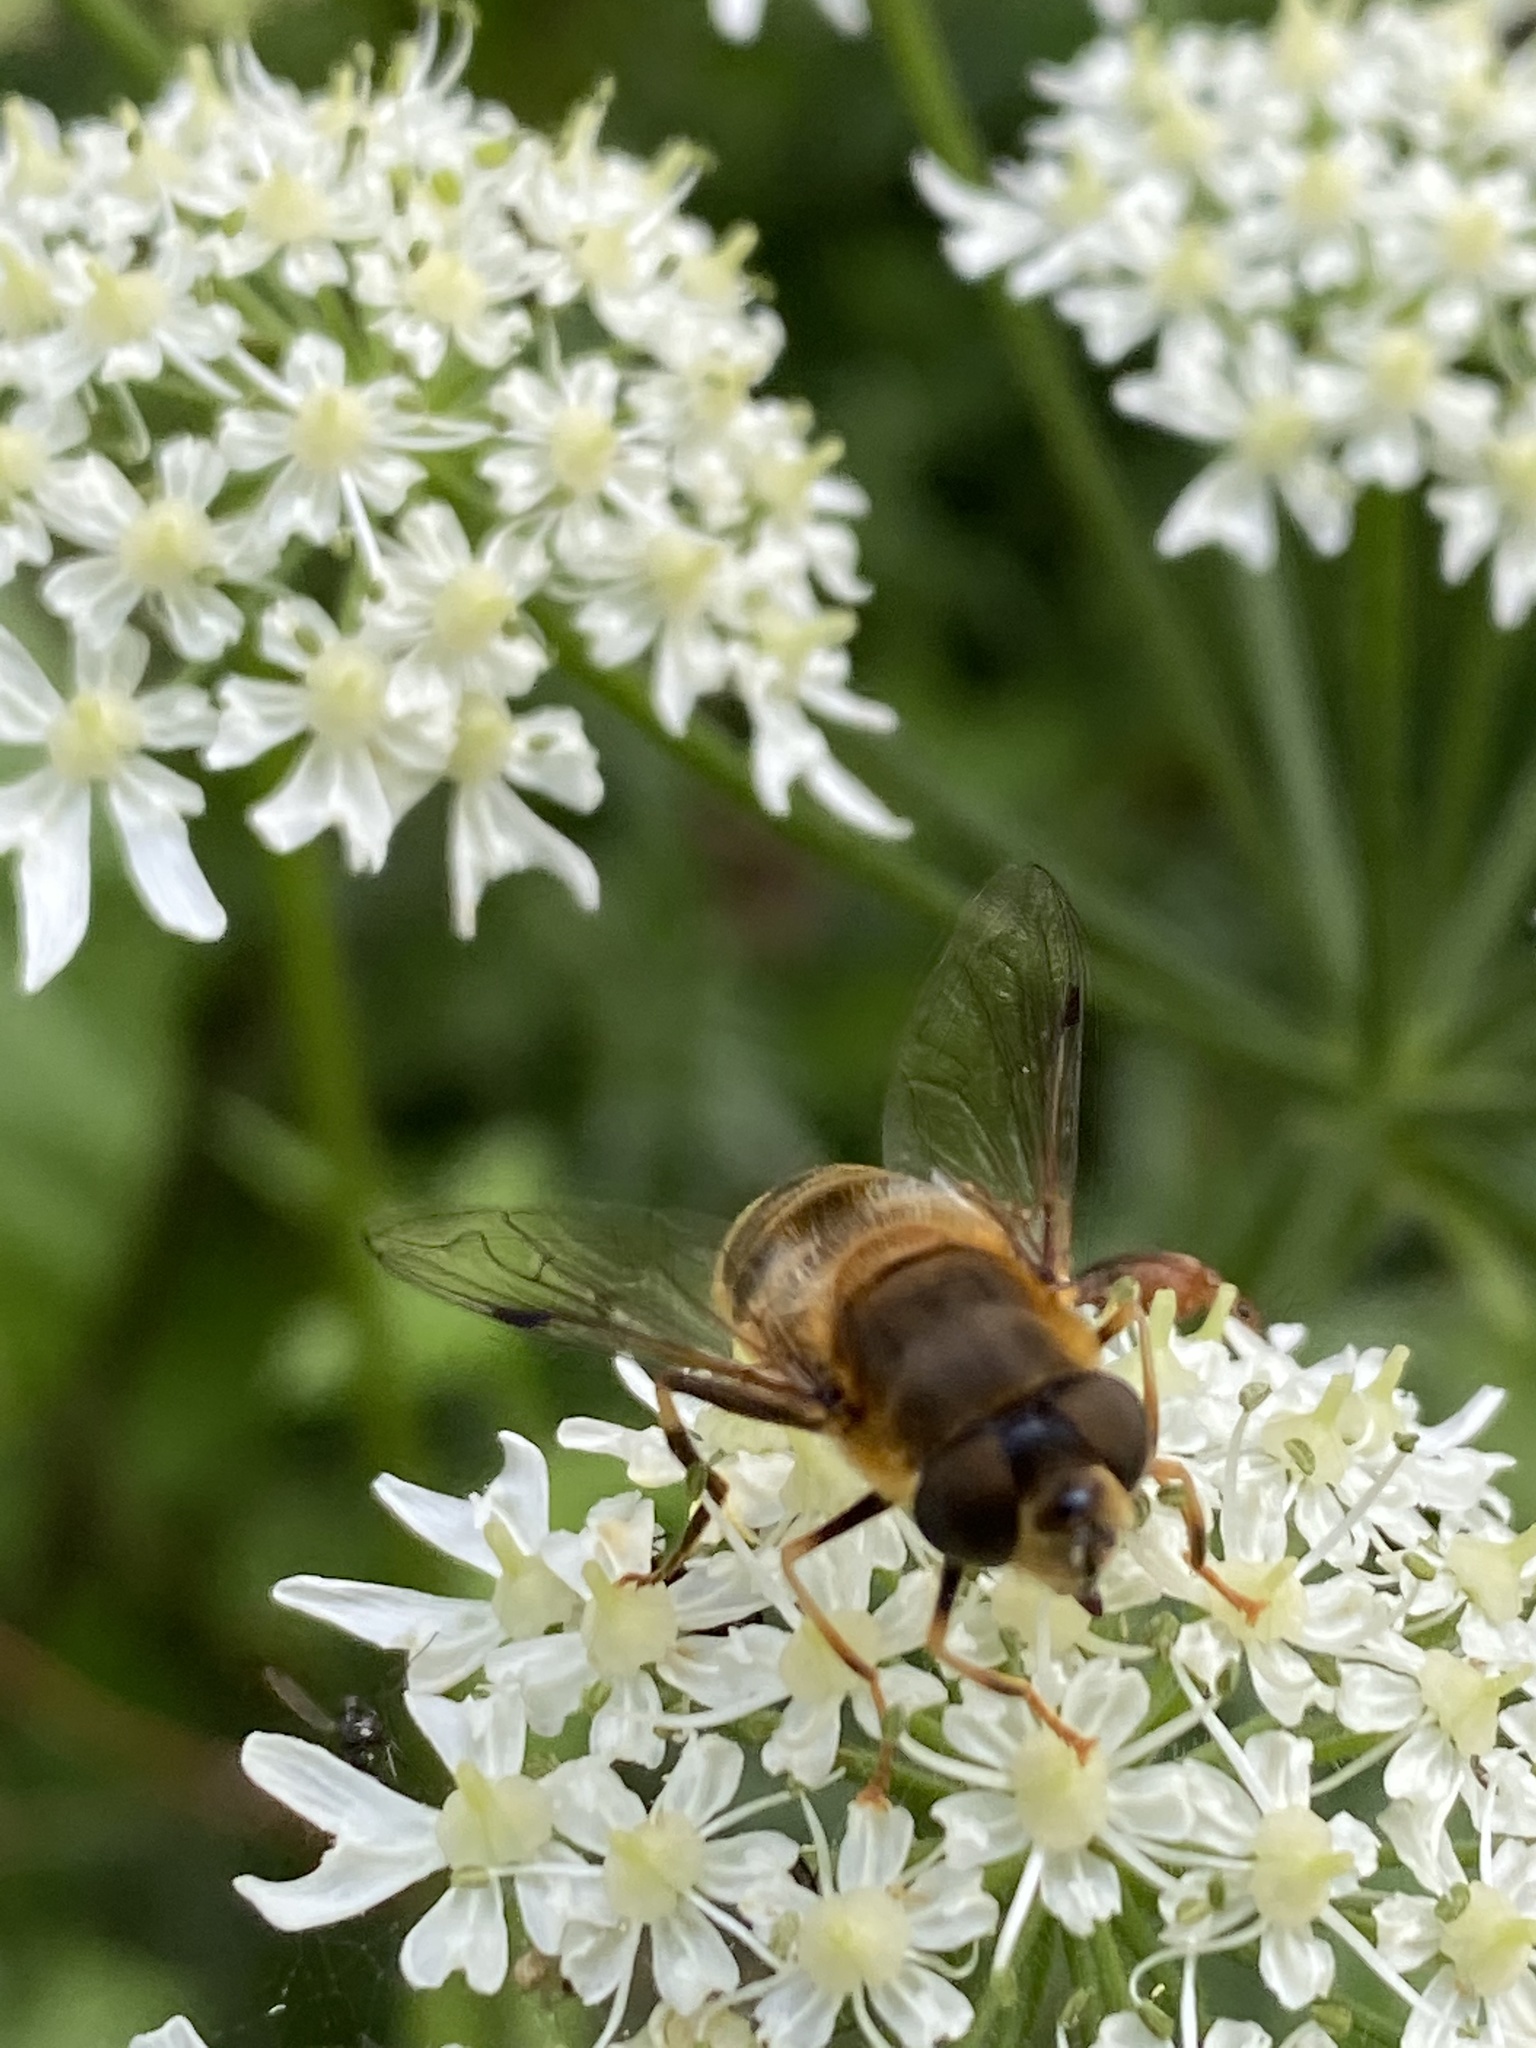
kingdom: Animalia
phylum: Arthropoda
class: Insecta
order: Diptera
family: Syrphidae
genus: Eristalis
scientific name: Eristalis pertinax
